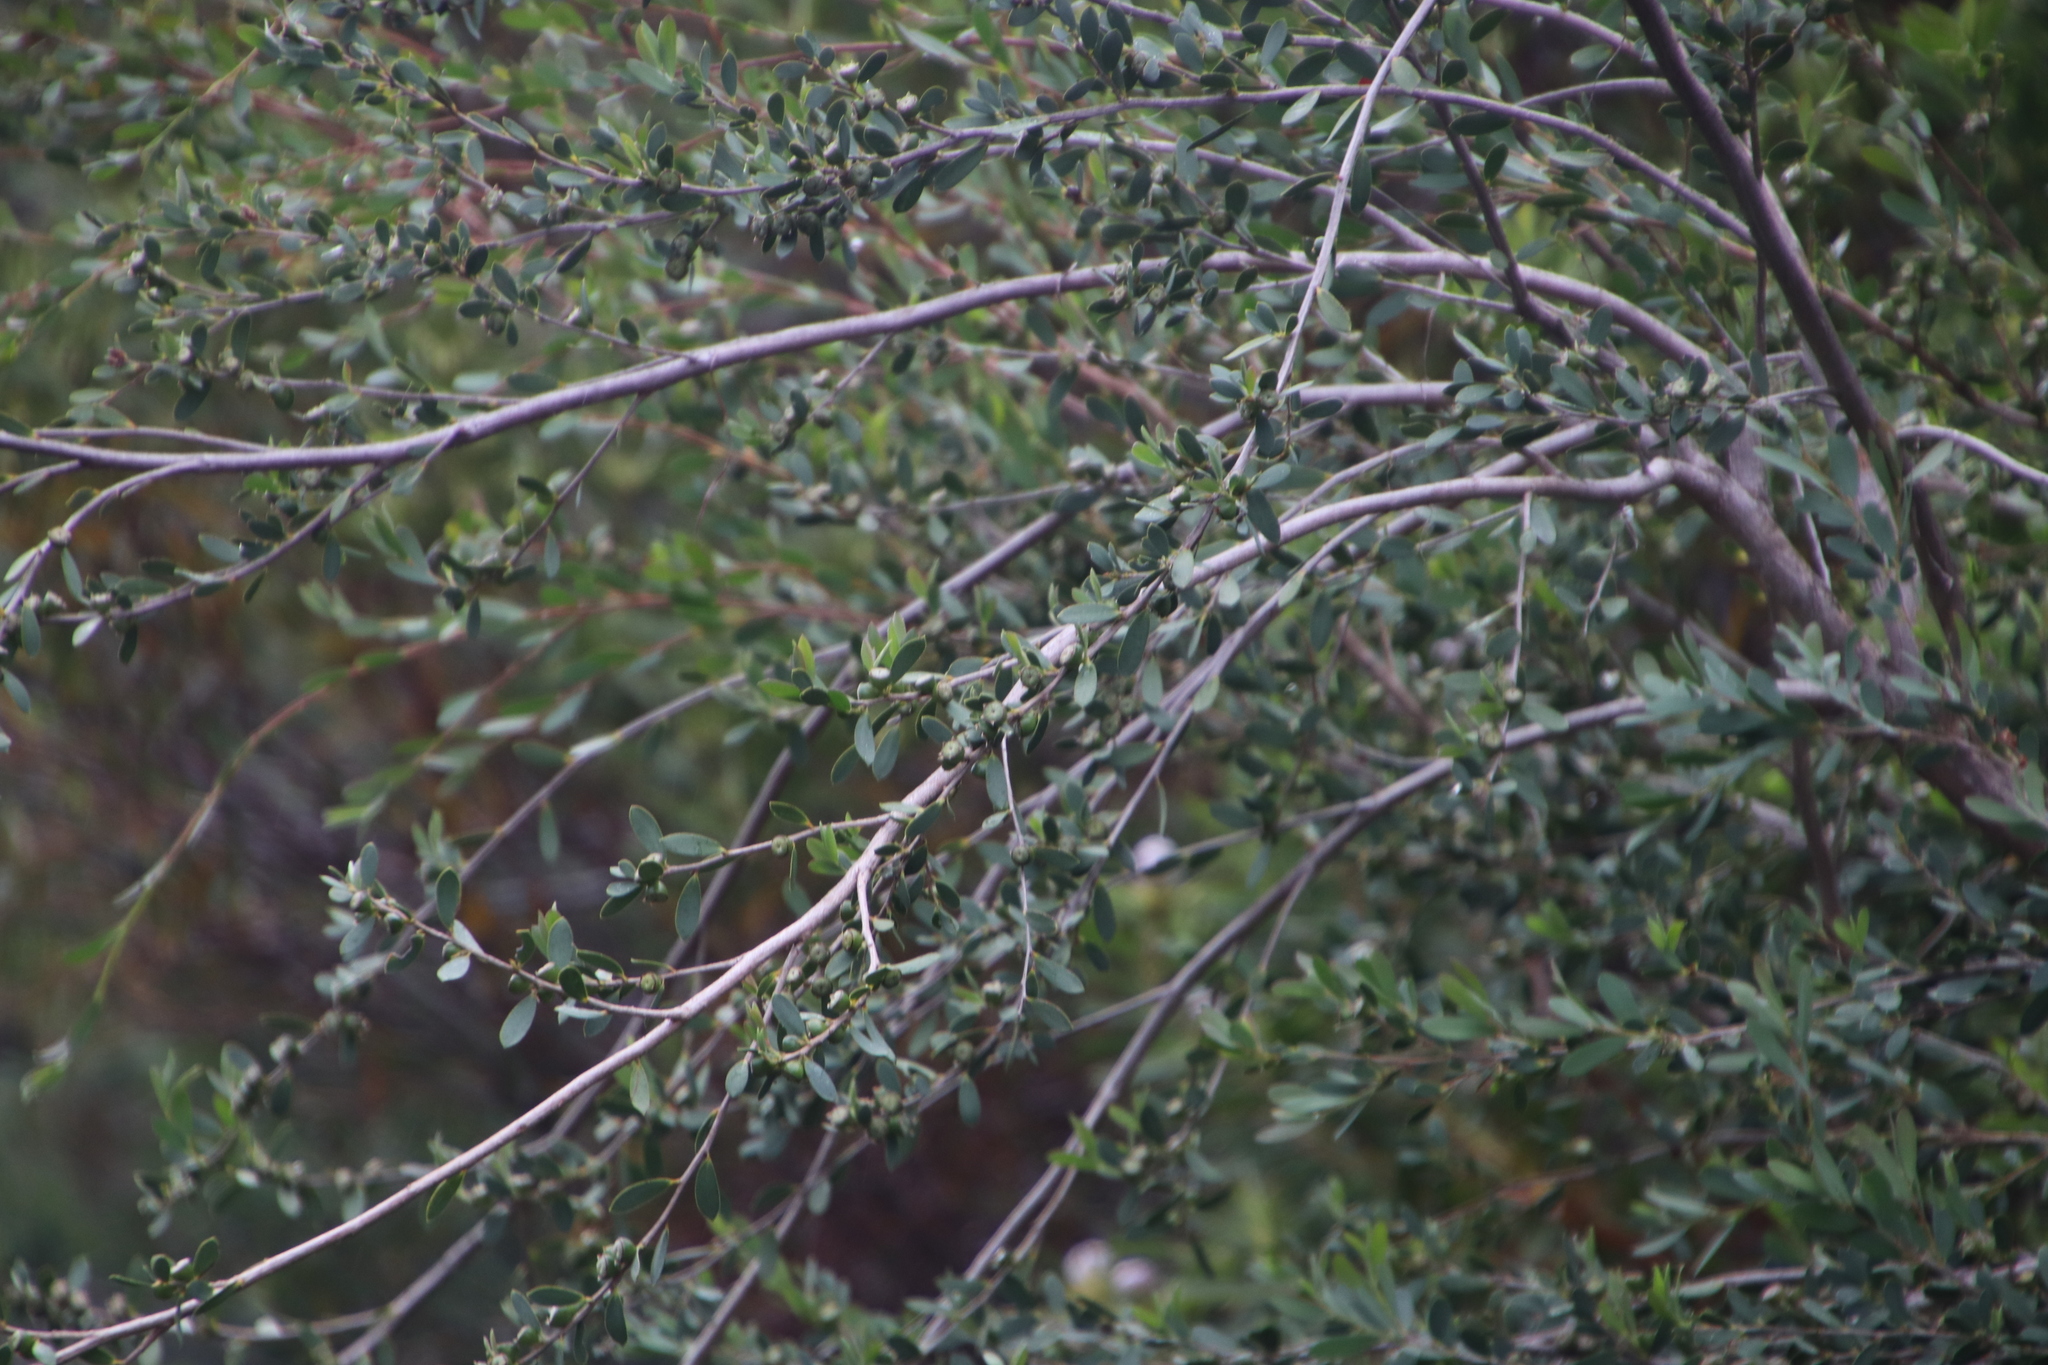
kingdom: Plantae
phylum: Tracheophyta
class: Magnoliopsida
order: Myrtales
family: Myrtaceae
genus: Leptospermum
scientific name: Leptospermum laevigatum
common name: Australian teatree
